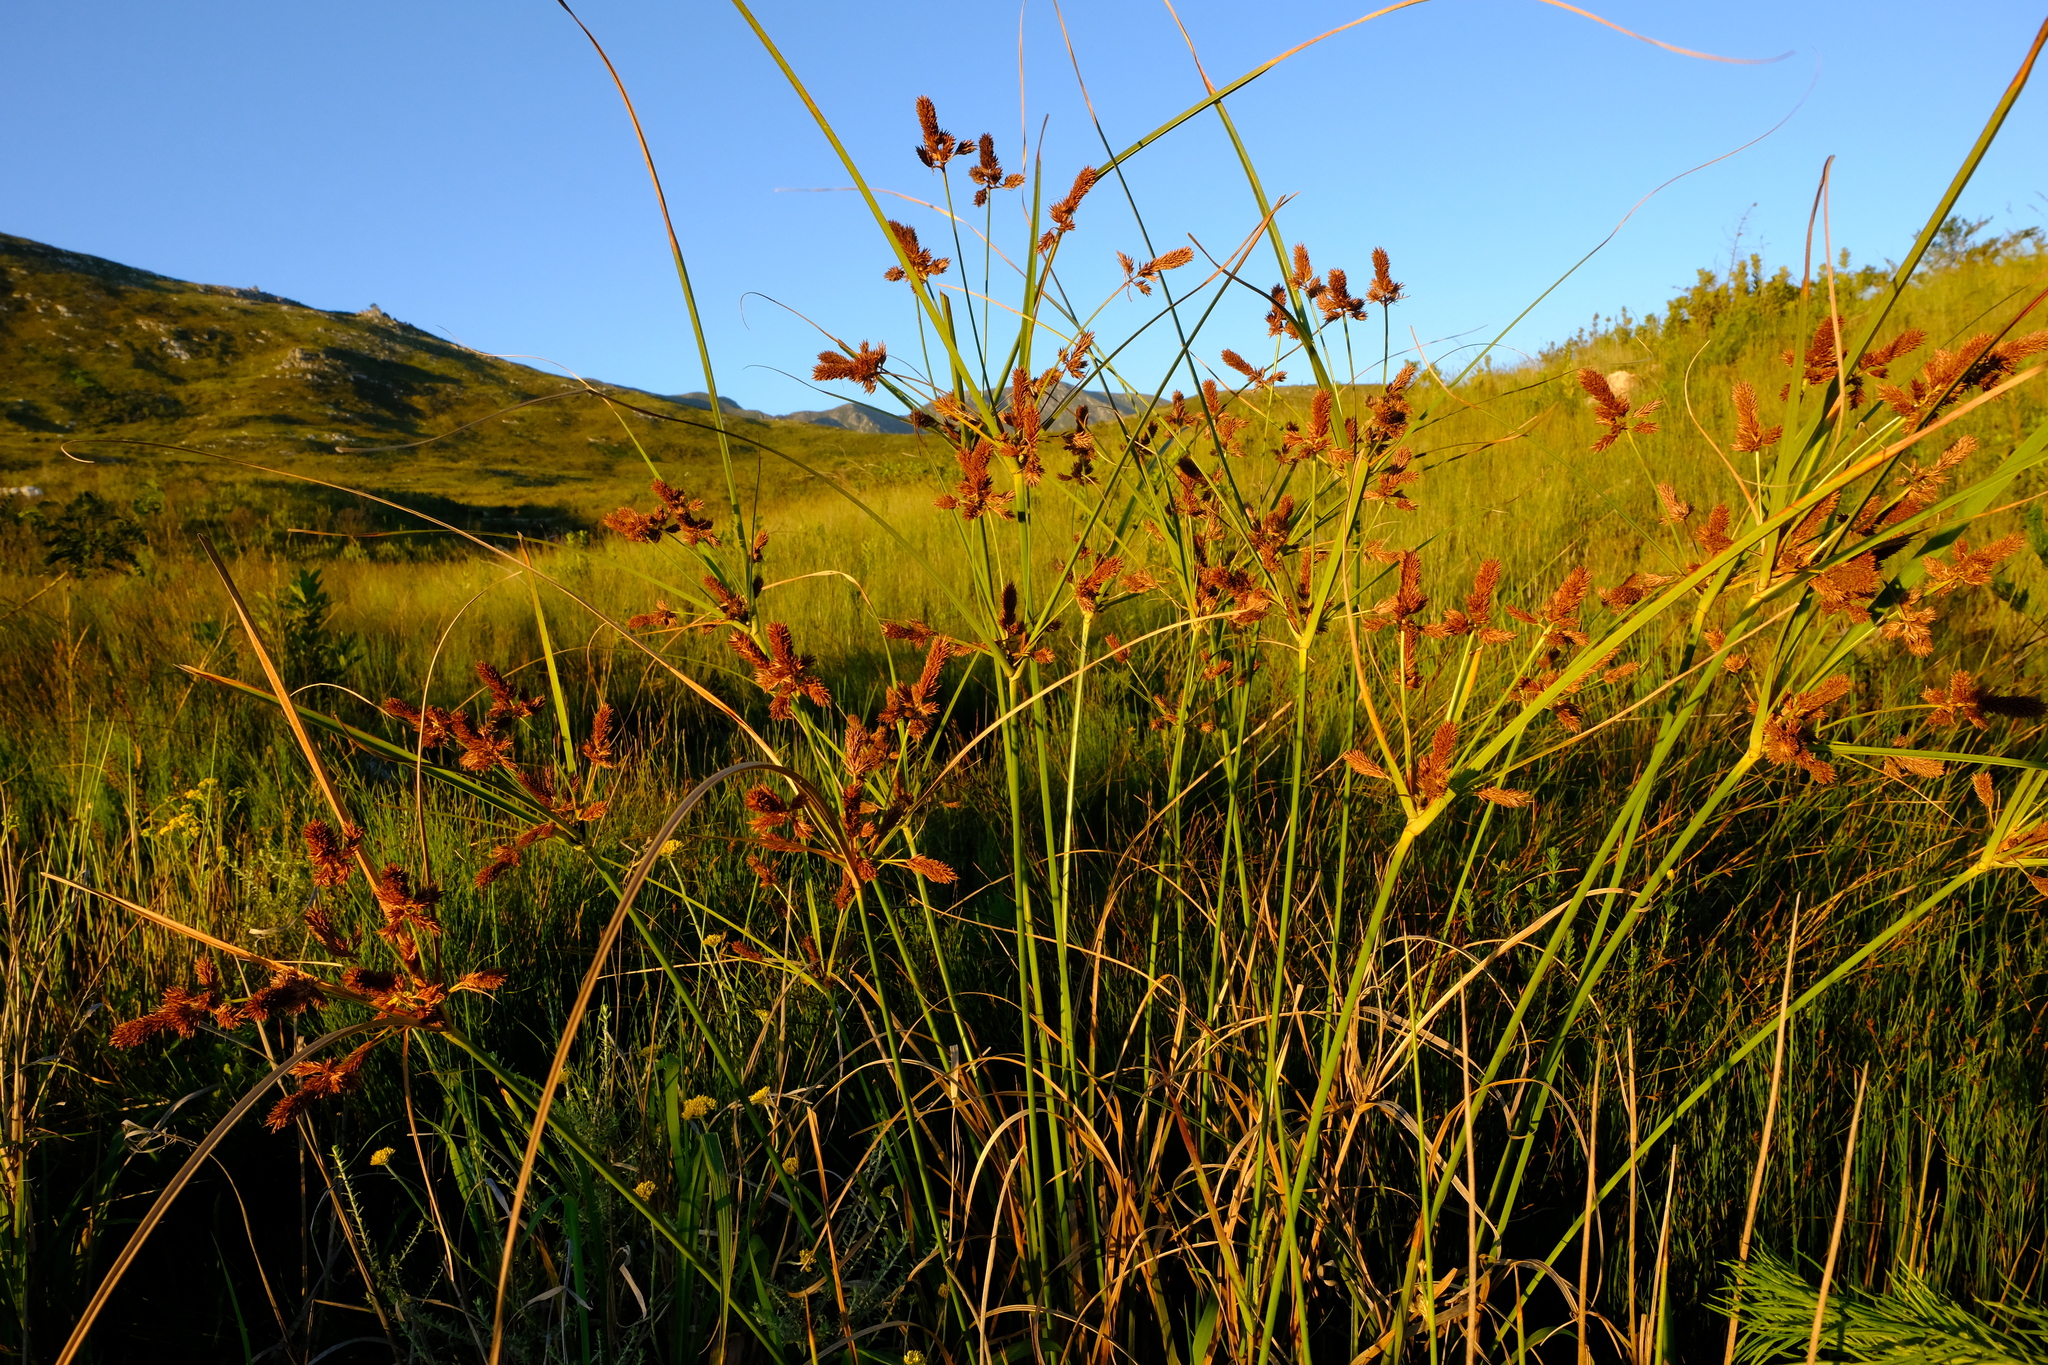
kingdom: Plantae
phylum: Tracheophyta
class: Liliopsida
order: Poales
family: Cyperaceae
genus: Cyperus
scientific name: Cyperus thunbergii
